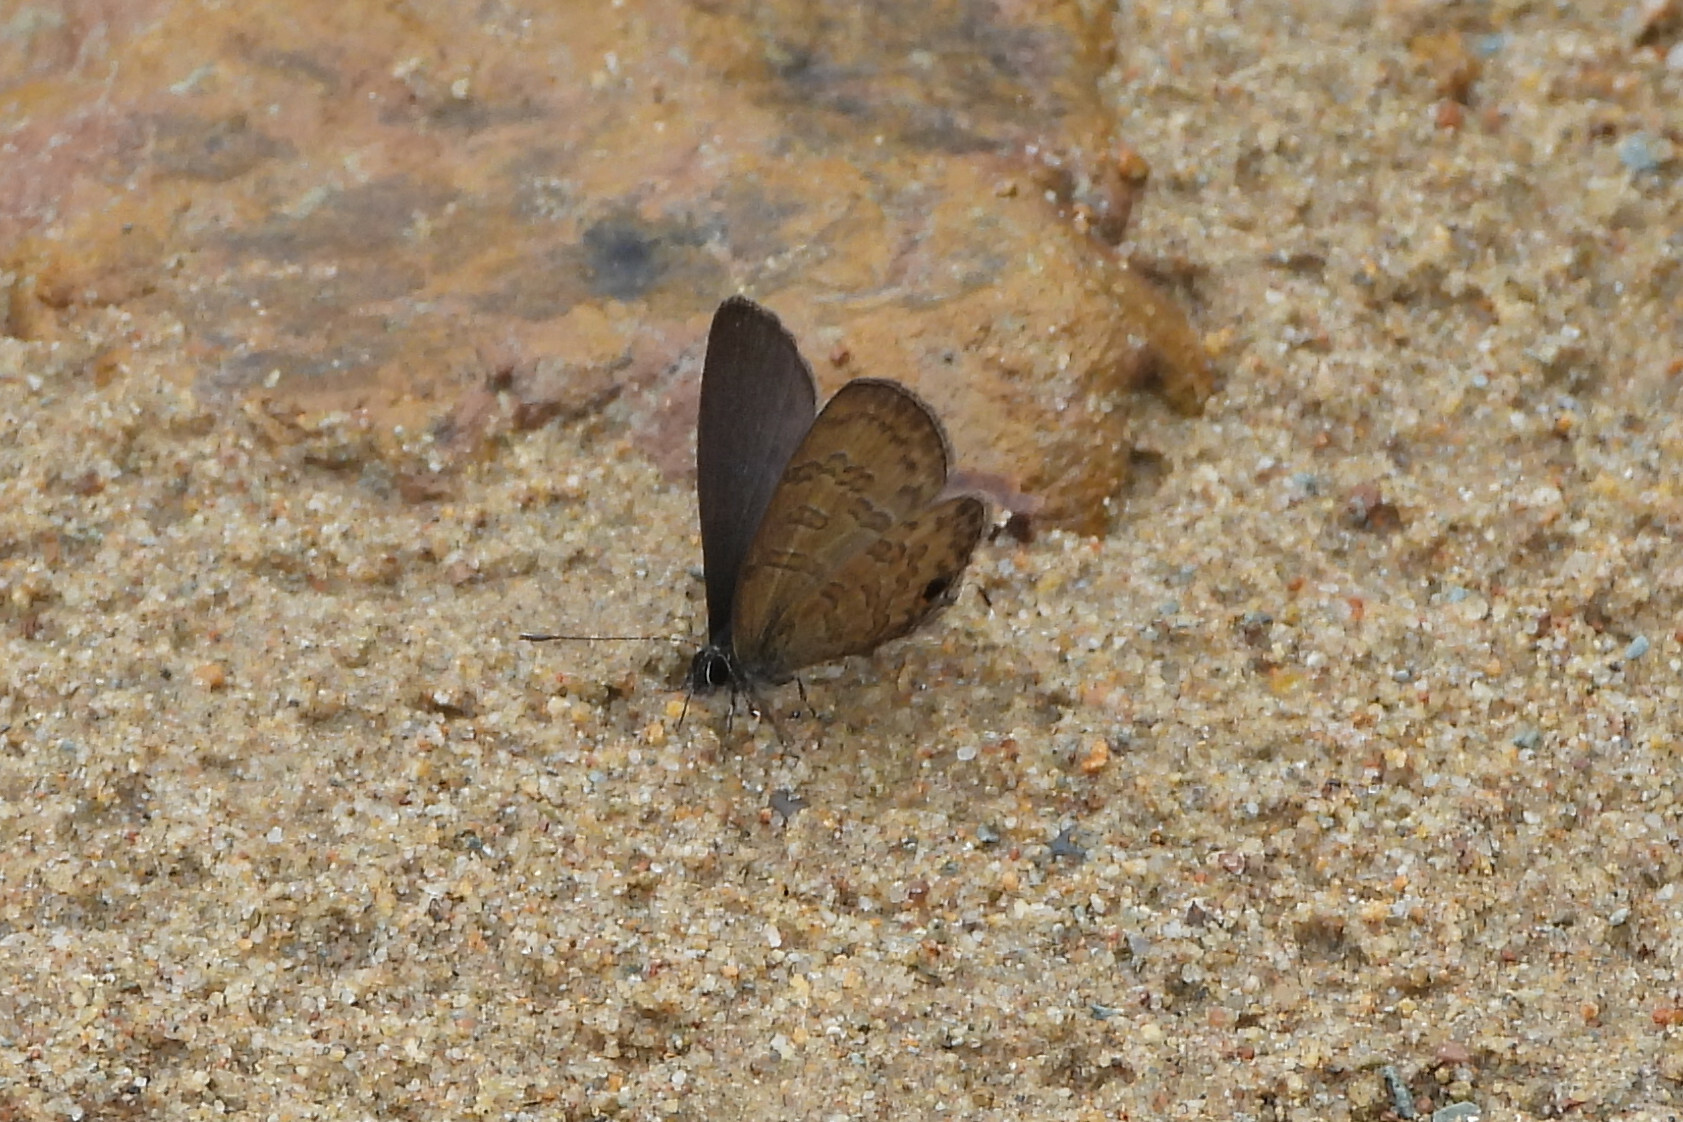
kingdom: Animalia
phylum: Arthropoda
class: Insecta
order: Lepidoptera
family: Lycaenidae
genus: Prosotas
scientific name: Prosotas nora
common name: Common line blue
